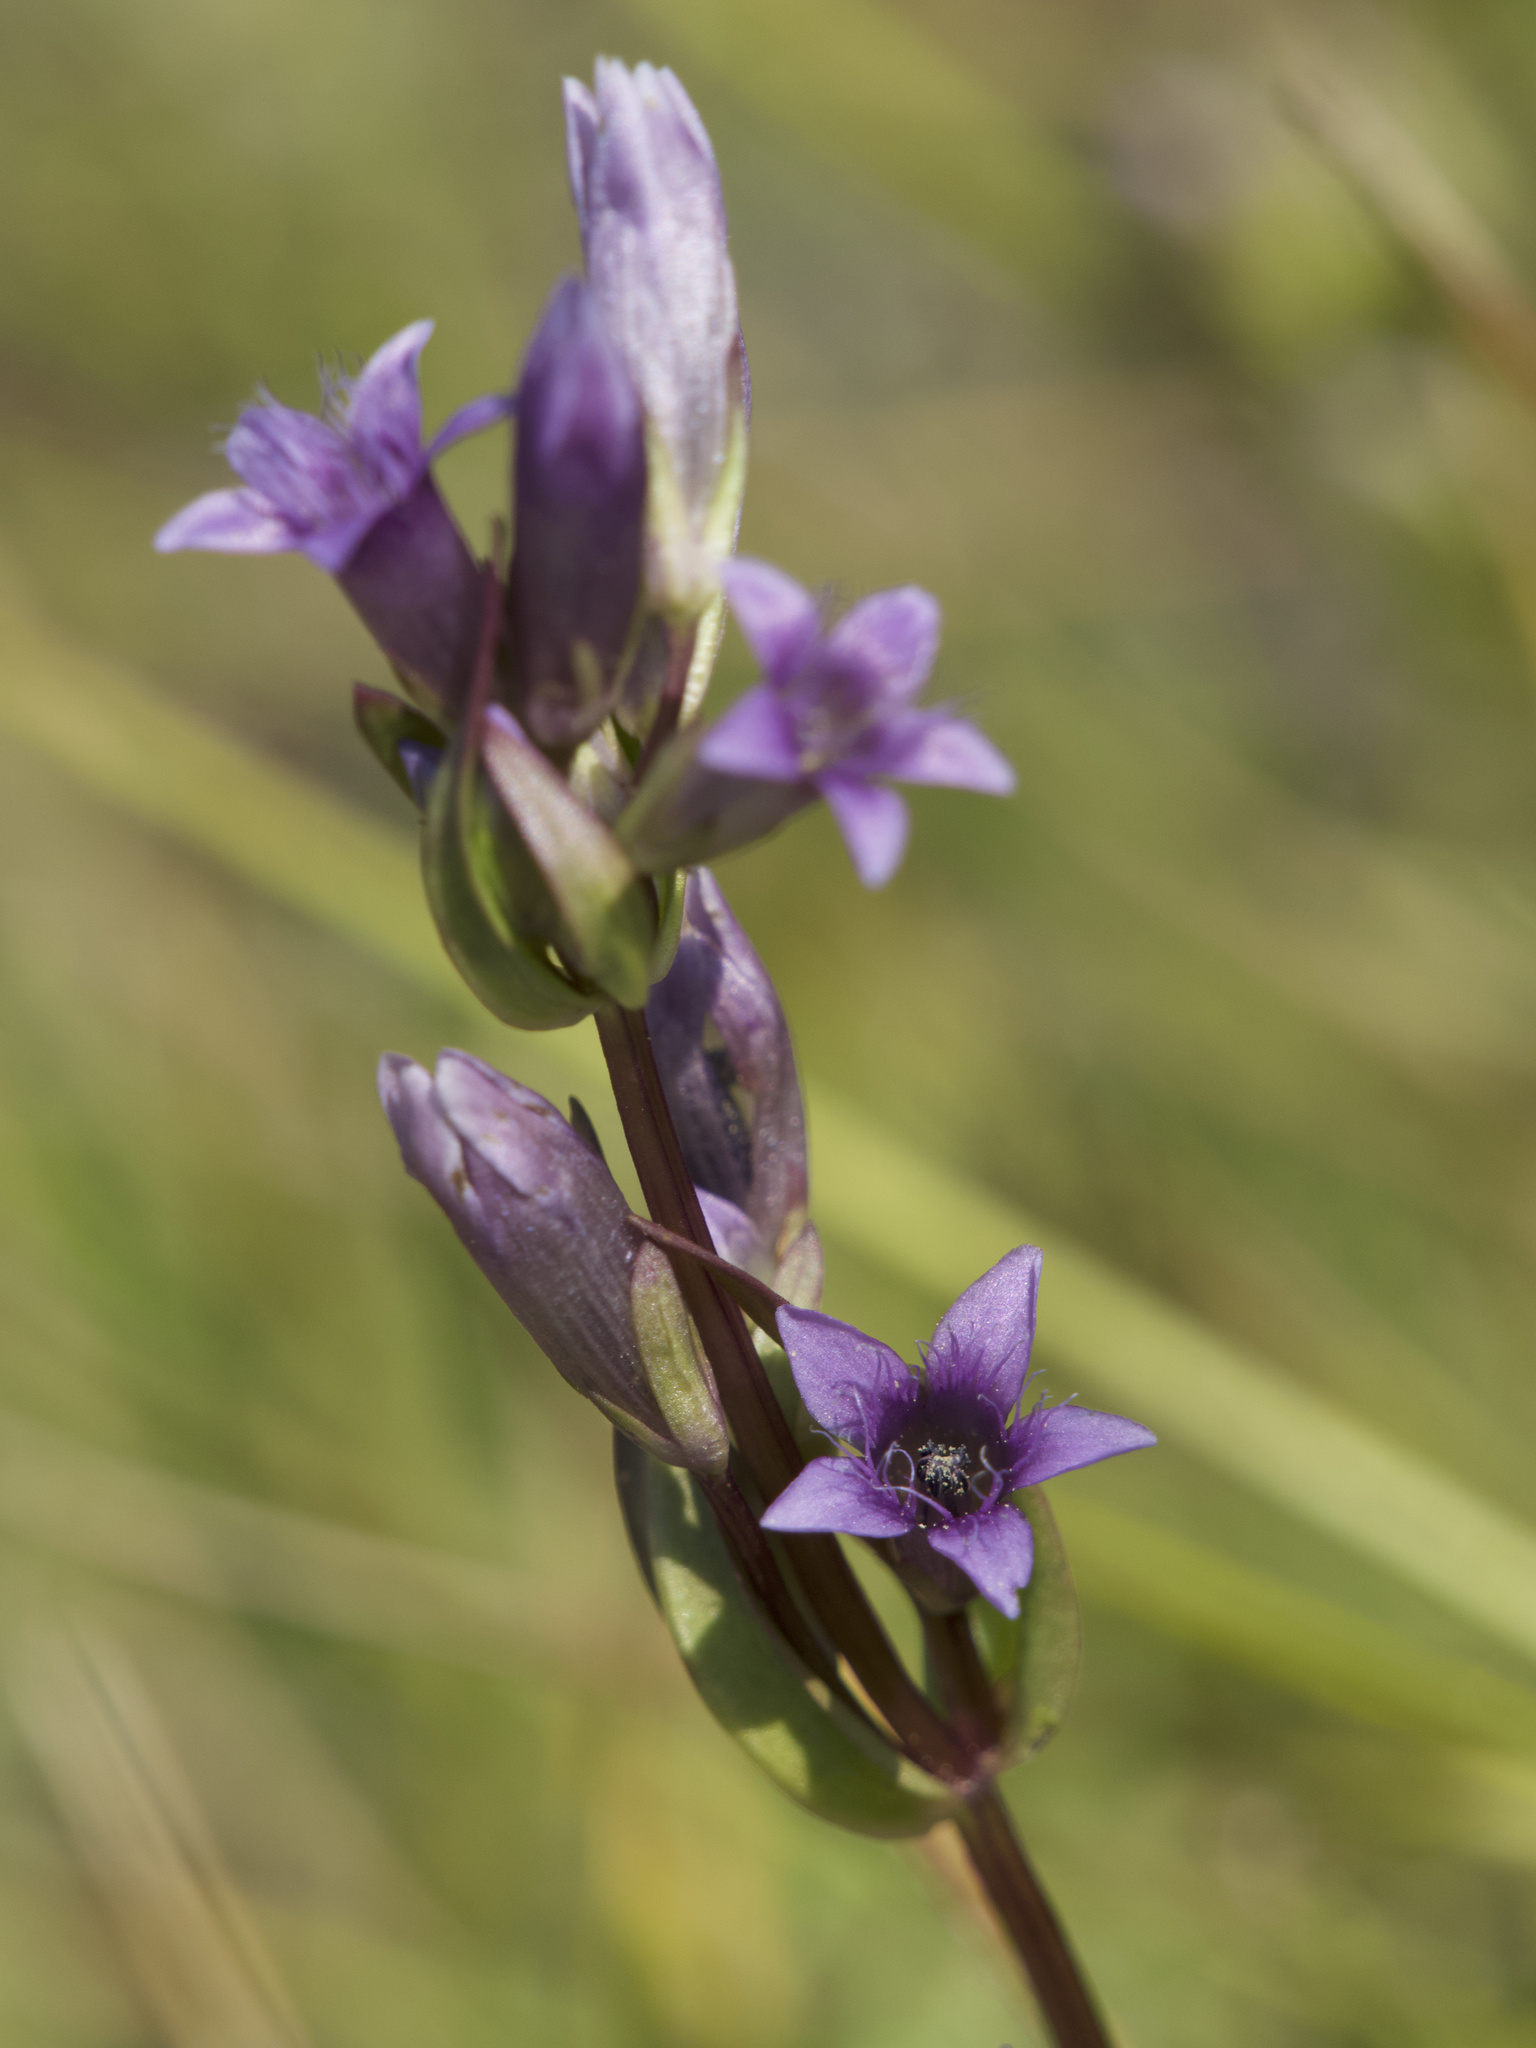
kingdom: Plantae
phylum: Tracheophyta
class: Magnoliopsida
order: Gentianales
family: Gentianaceae
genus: Gentianella
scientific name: Gentianella amarella
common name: Autumn gentian
